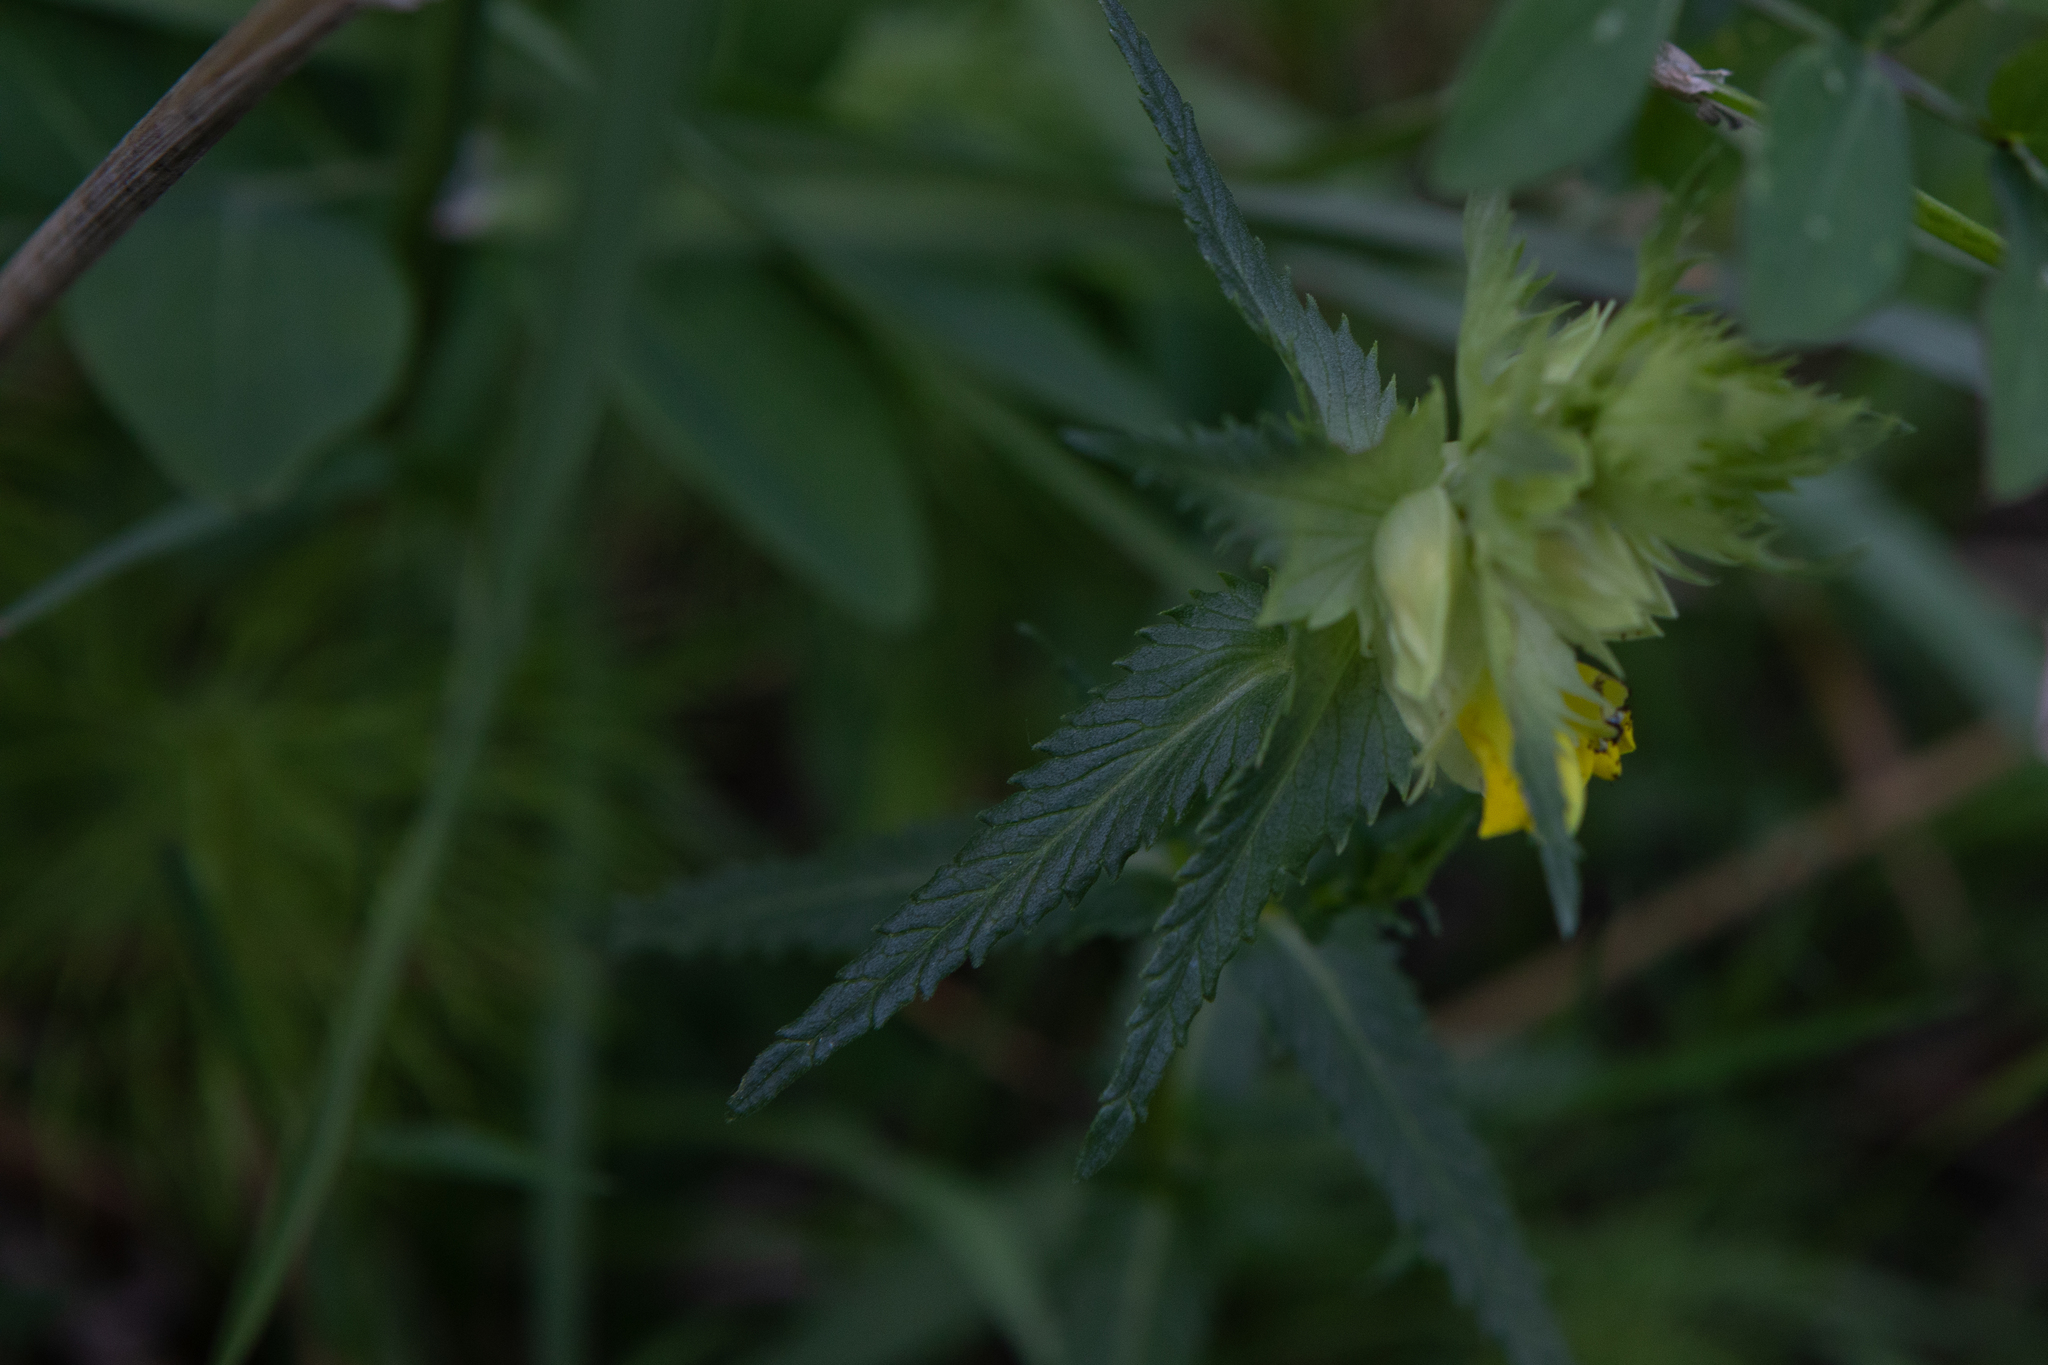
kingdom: Plantae
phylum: Tracheophyta
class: Magnoliopsida
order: Lamiales
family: Orobanchaceae
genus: Rhinanthus
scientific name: Rhinanthus serotinus
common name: Late-flowering yellow rattle
